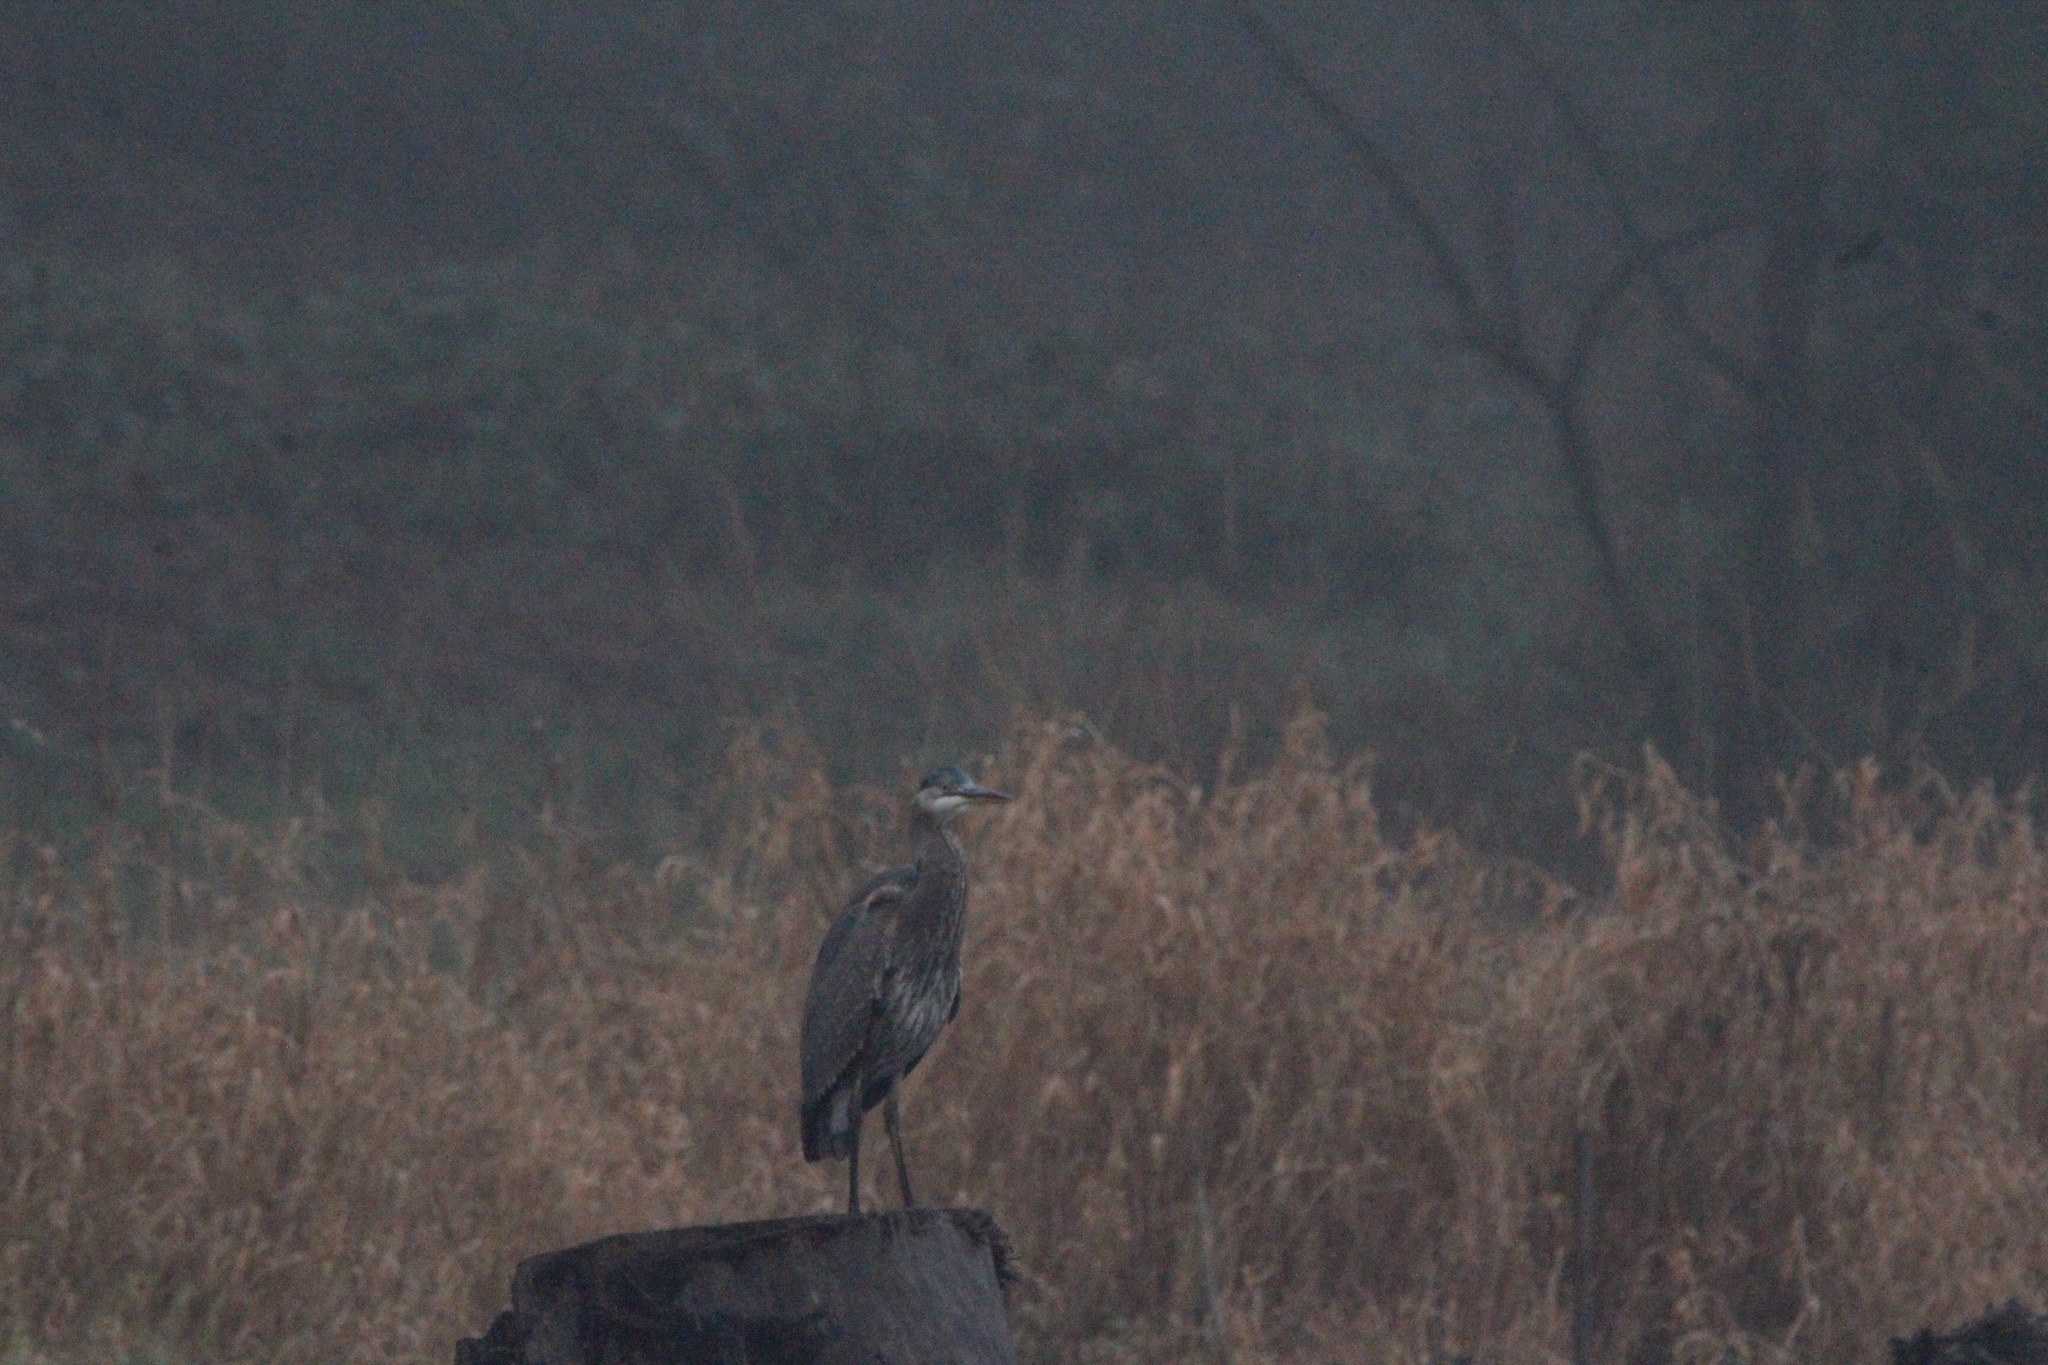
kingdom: Animalia
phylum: Chordata
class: Aves
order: Pelecaniformes
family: Ardeidae
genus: Ardea
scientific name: Ardea herodias
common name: Great blue heron
